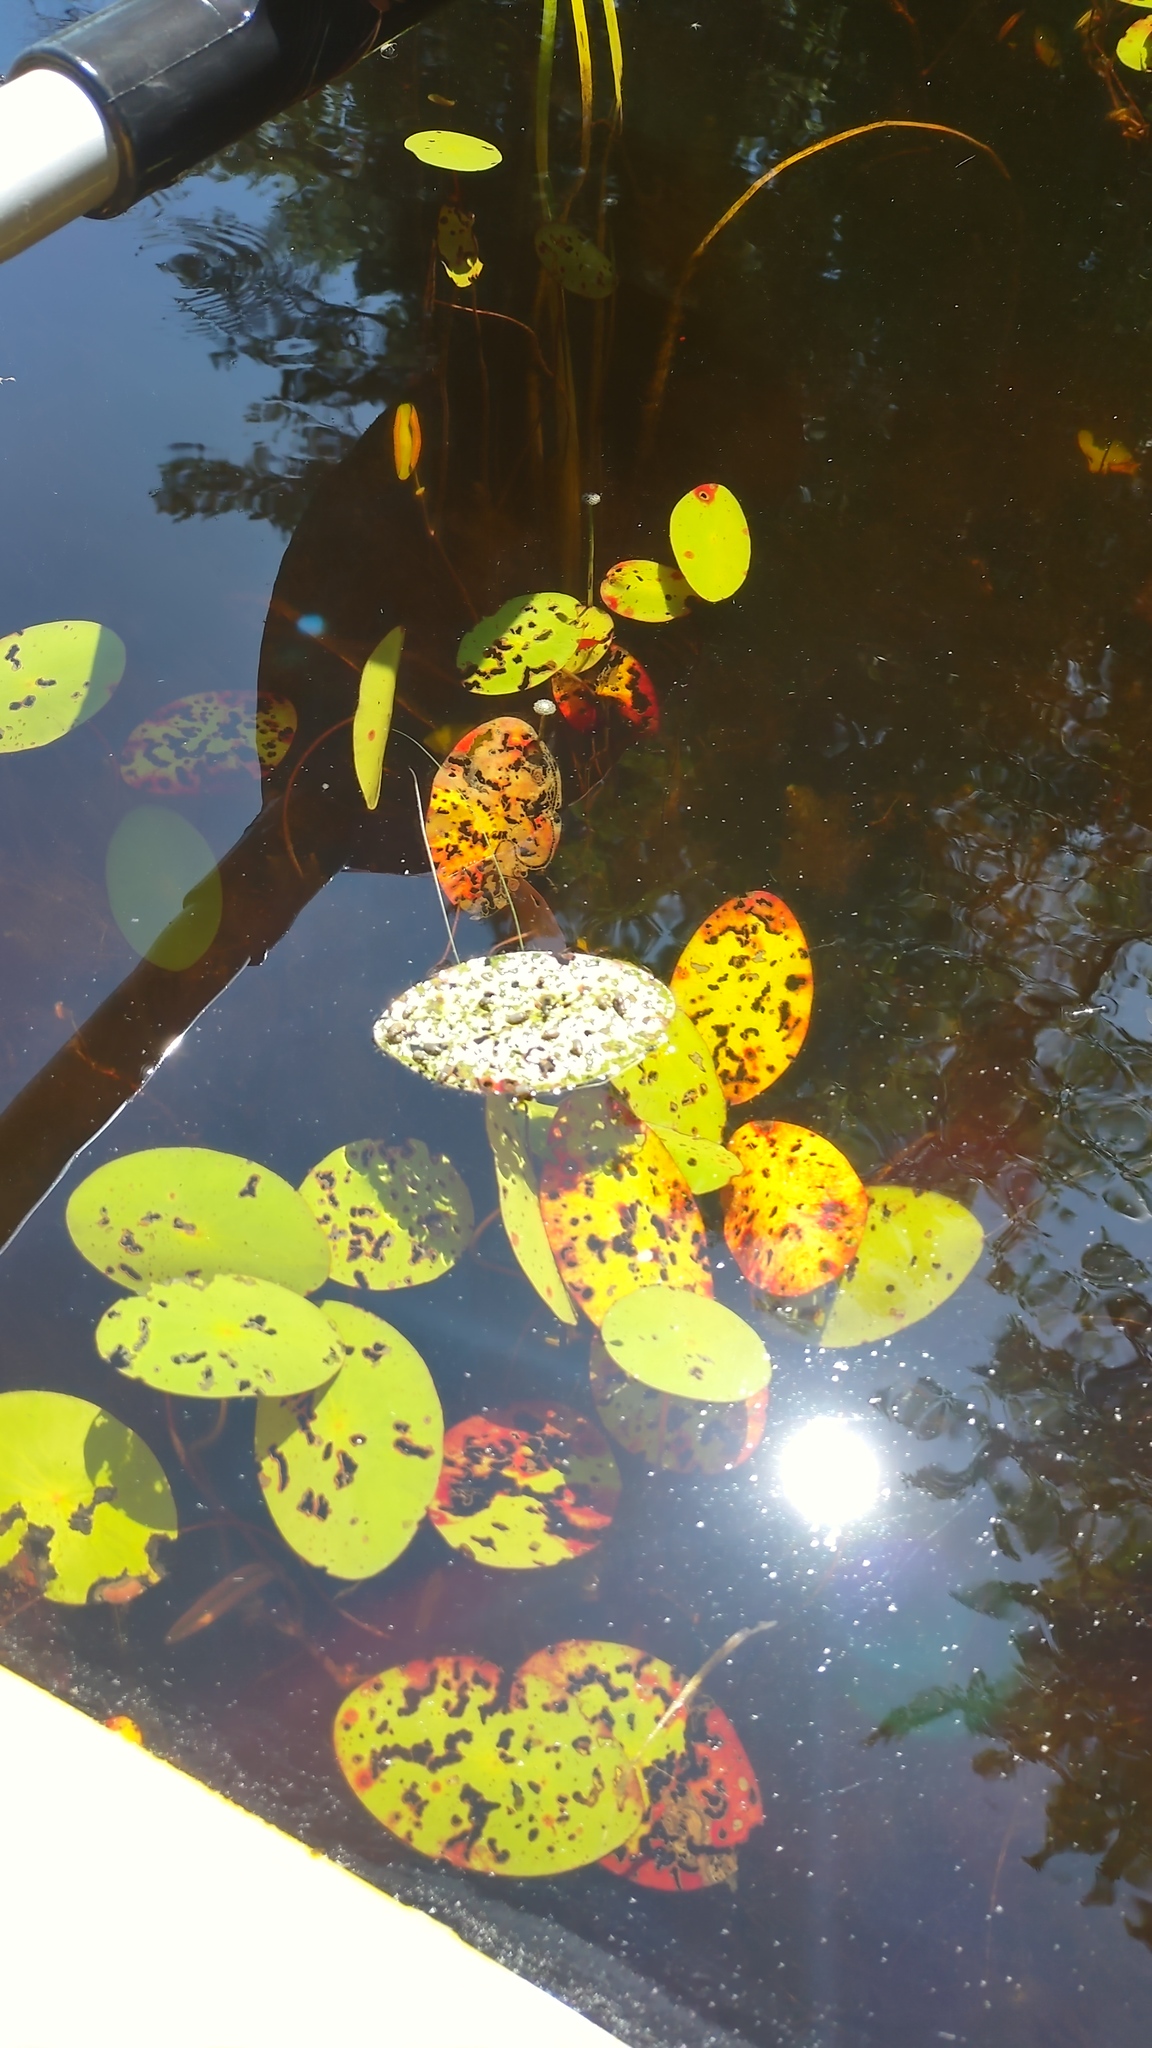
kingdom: Plantae
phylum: Tracheophyta
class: Magnoliopsida
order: Nymphaeales
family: Cabombaceae
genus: Brasenia
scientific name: Brasenia schreberi
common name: Water-shield
